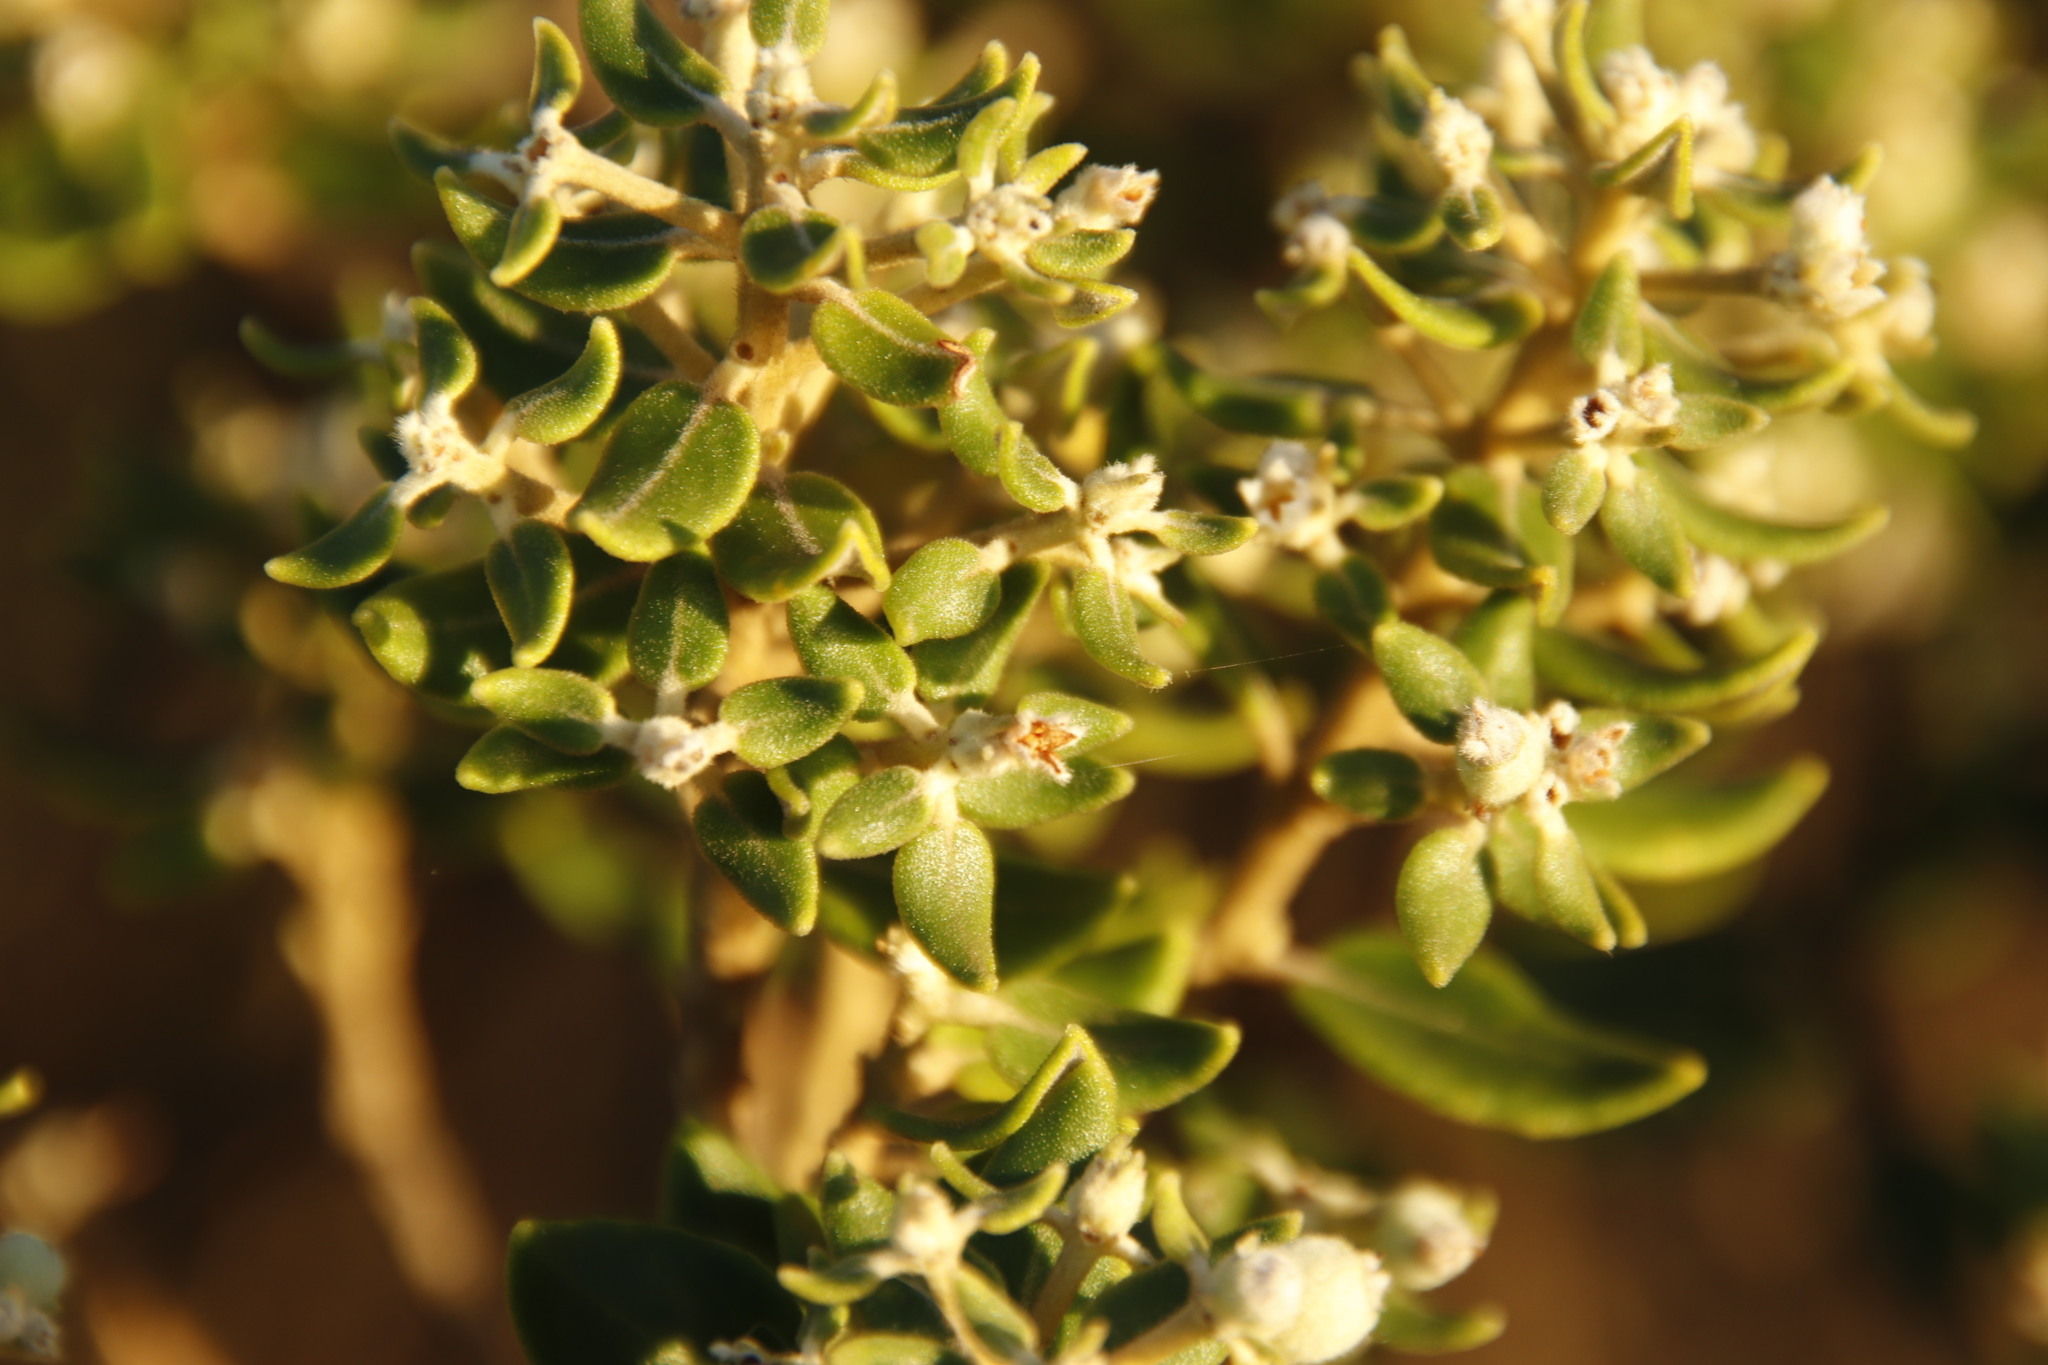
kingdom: Plantae
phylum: Tracheophyta
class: Magnoliopsida
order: Rosales
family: Rhamnaceae
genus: Phylica
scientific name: Phylica buxifolia
